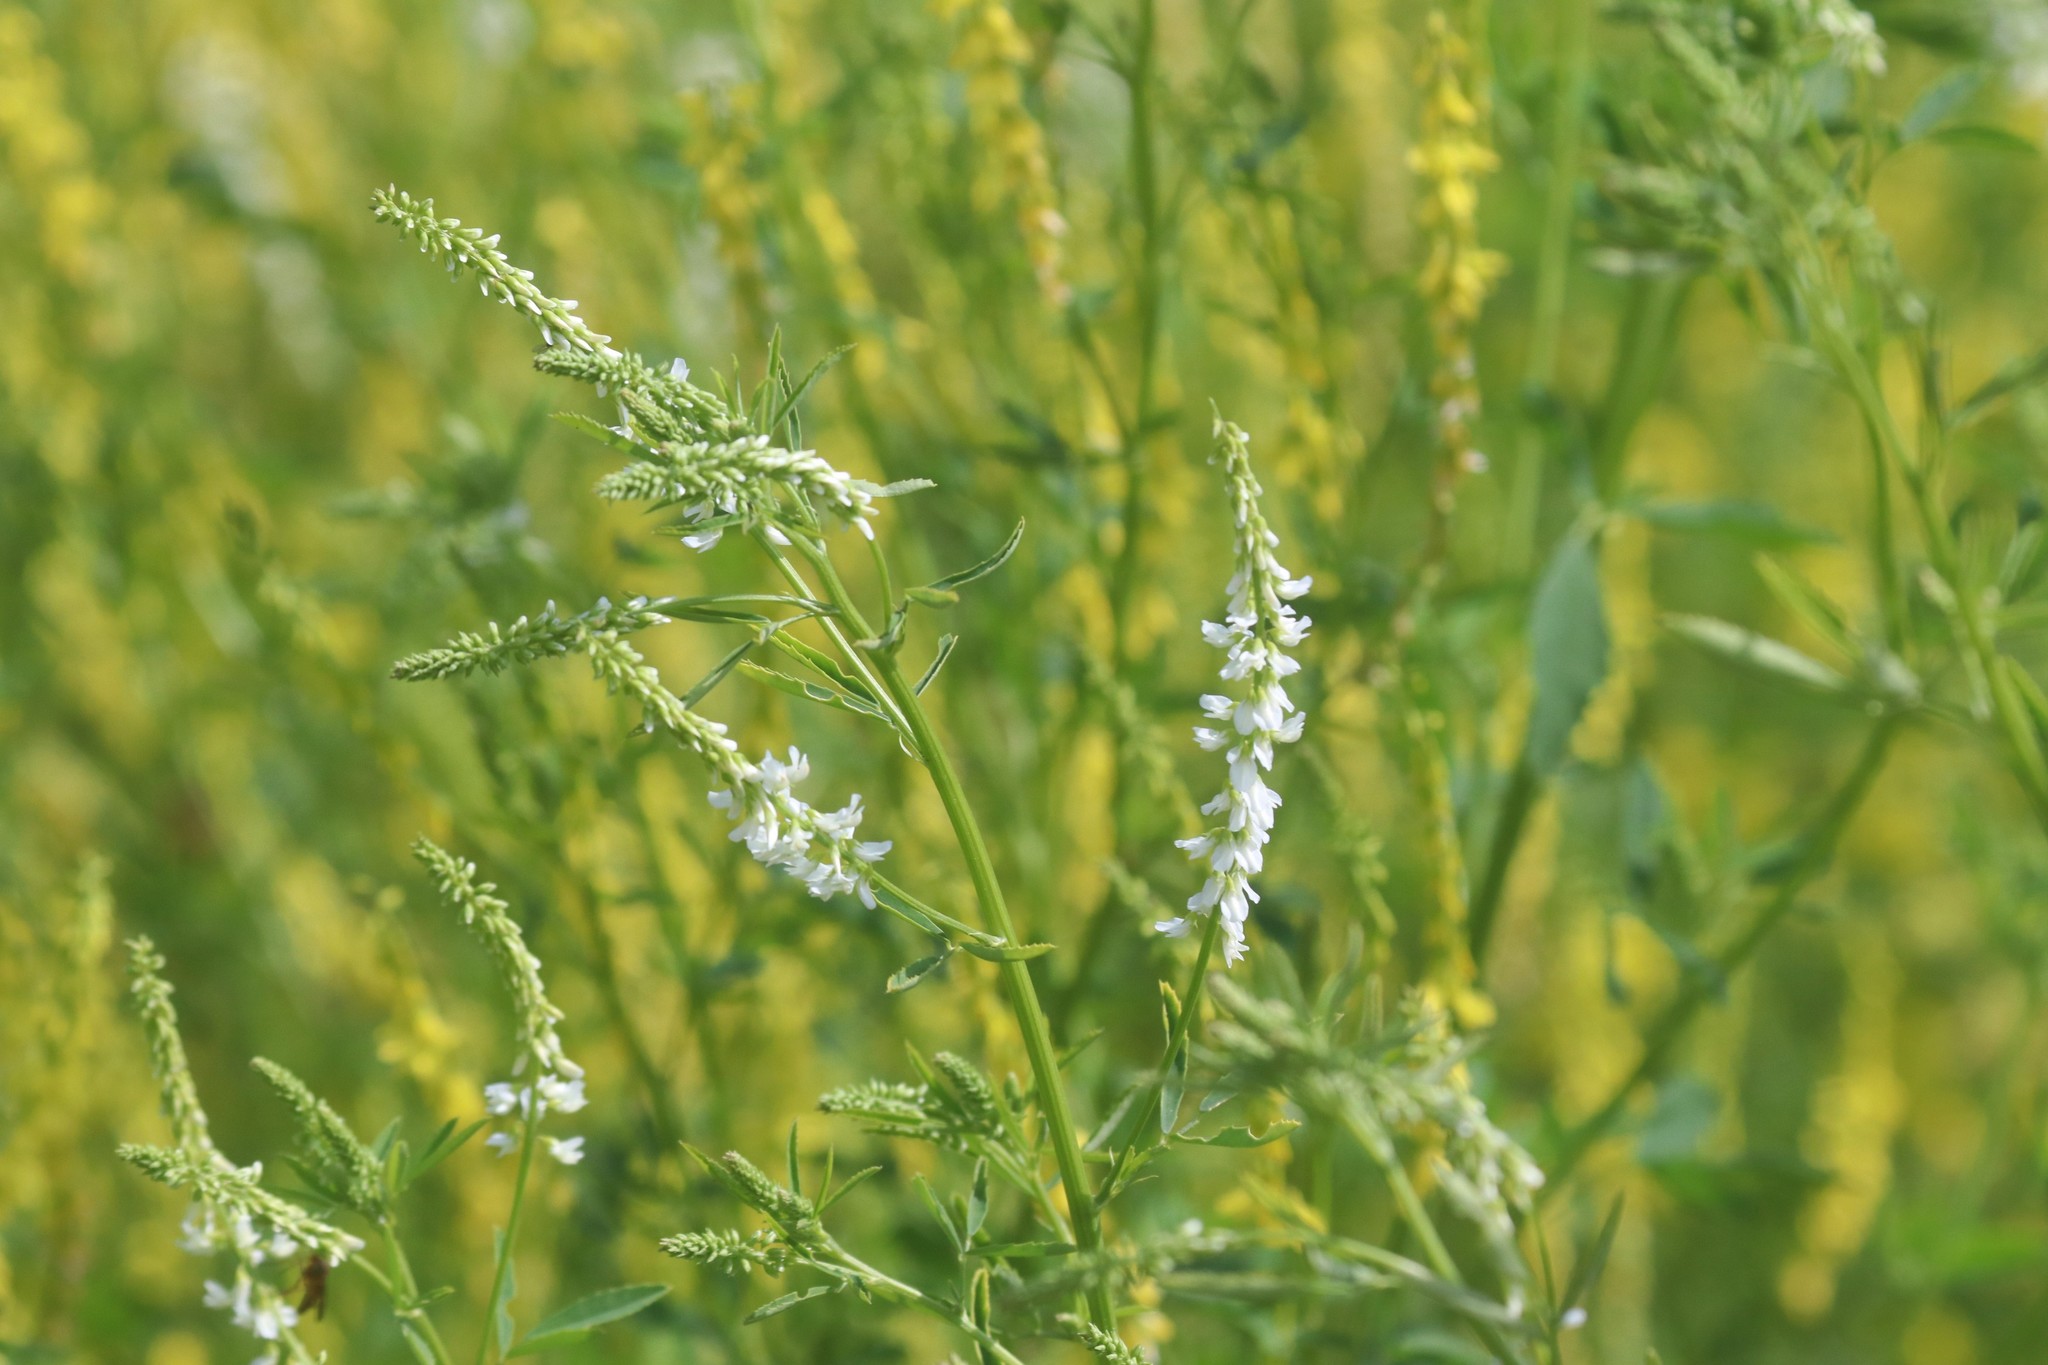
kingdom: Plantae
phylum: Tracheophyta
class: Magnoliopsida
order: Fabales
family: Fabaceae
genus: Melilotus
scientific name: Melilotus albus
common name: White melilot
